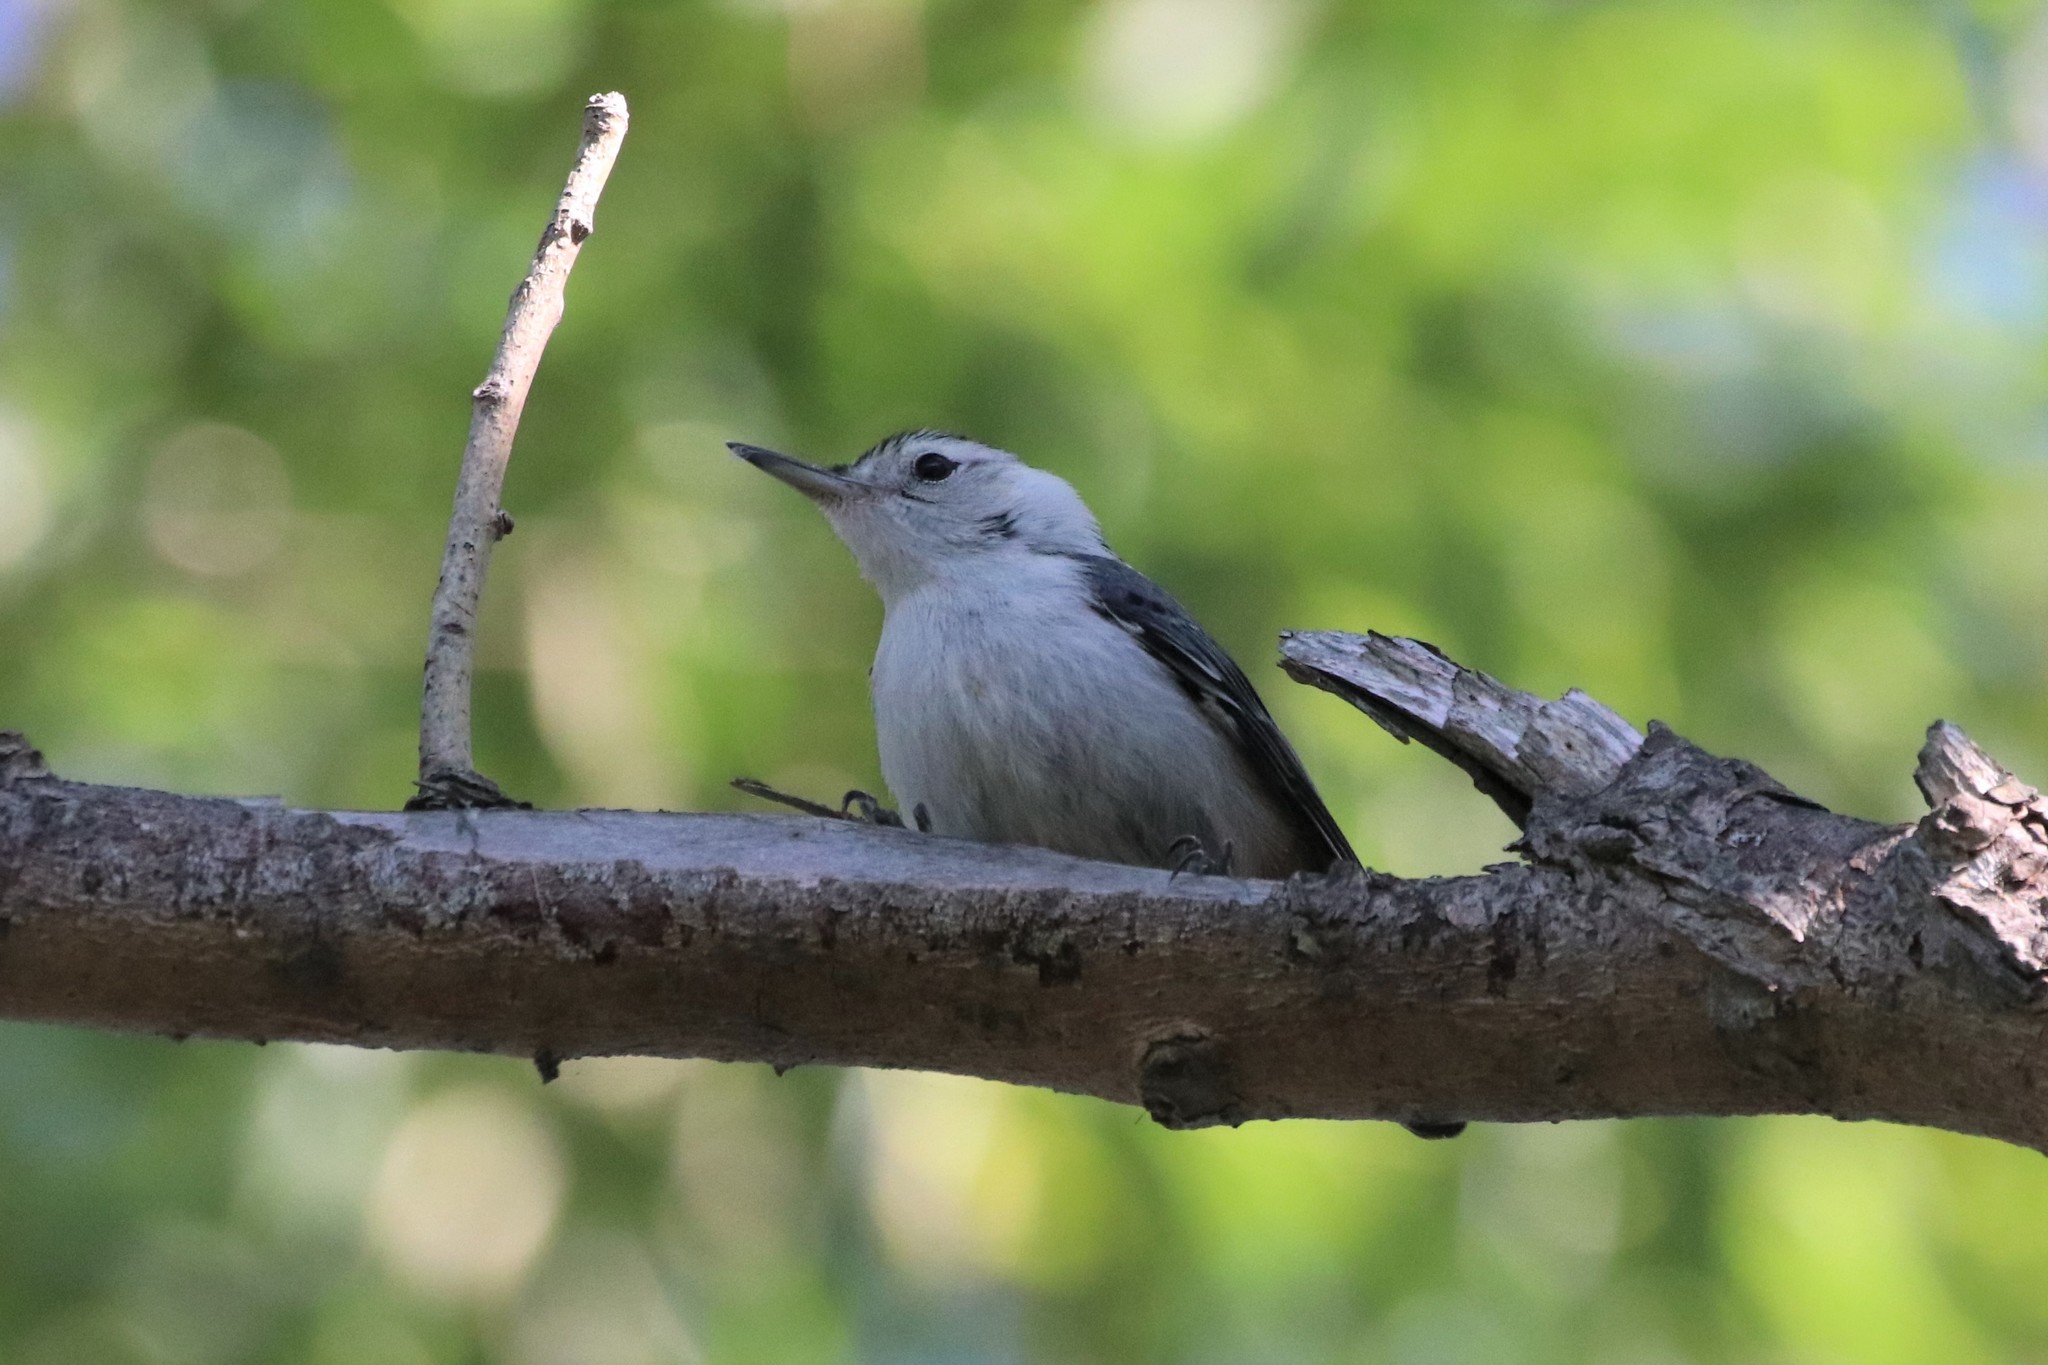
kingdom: Animalia
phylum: Chordata
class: Aves
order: Passeriformes
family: Sittidae
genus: Sitta
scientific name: Sitta carolinensis
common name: White-breasted nuthatch
